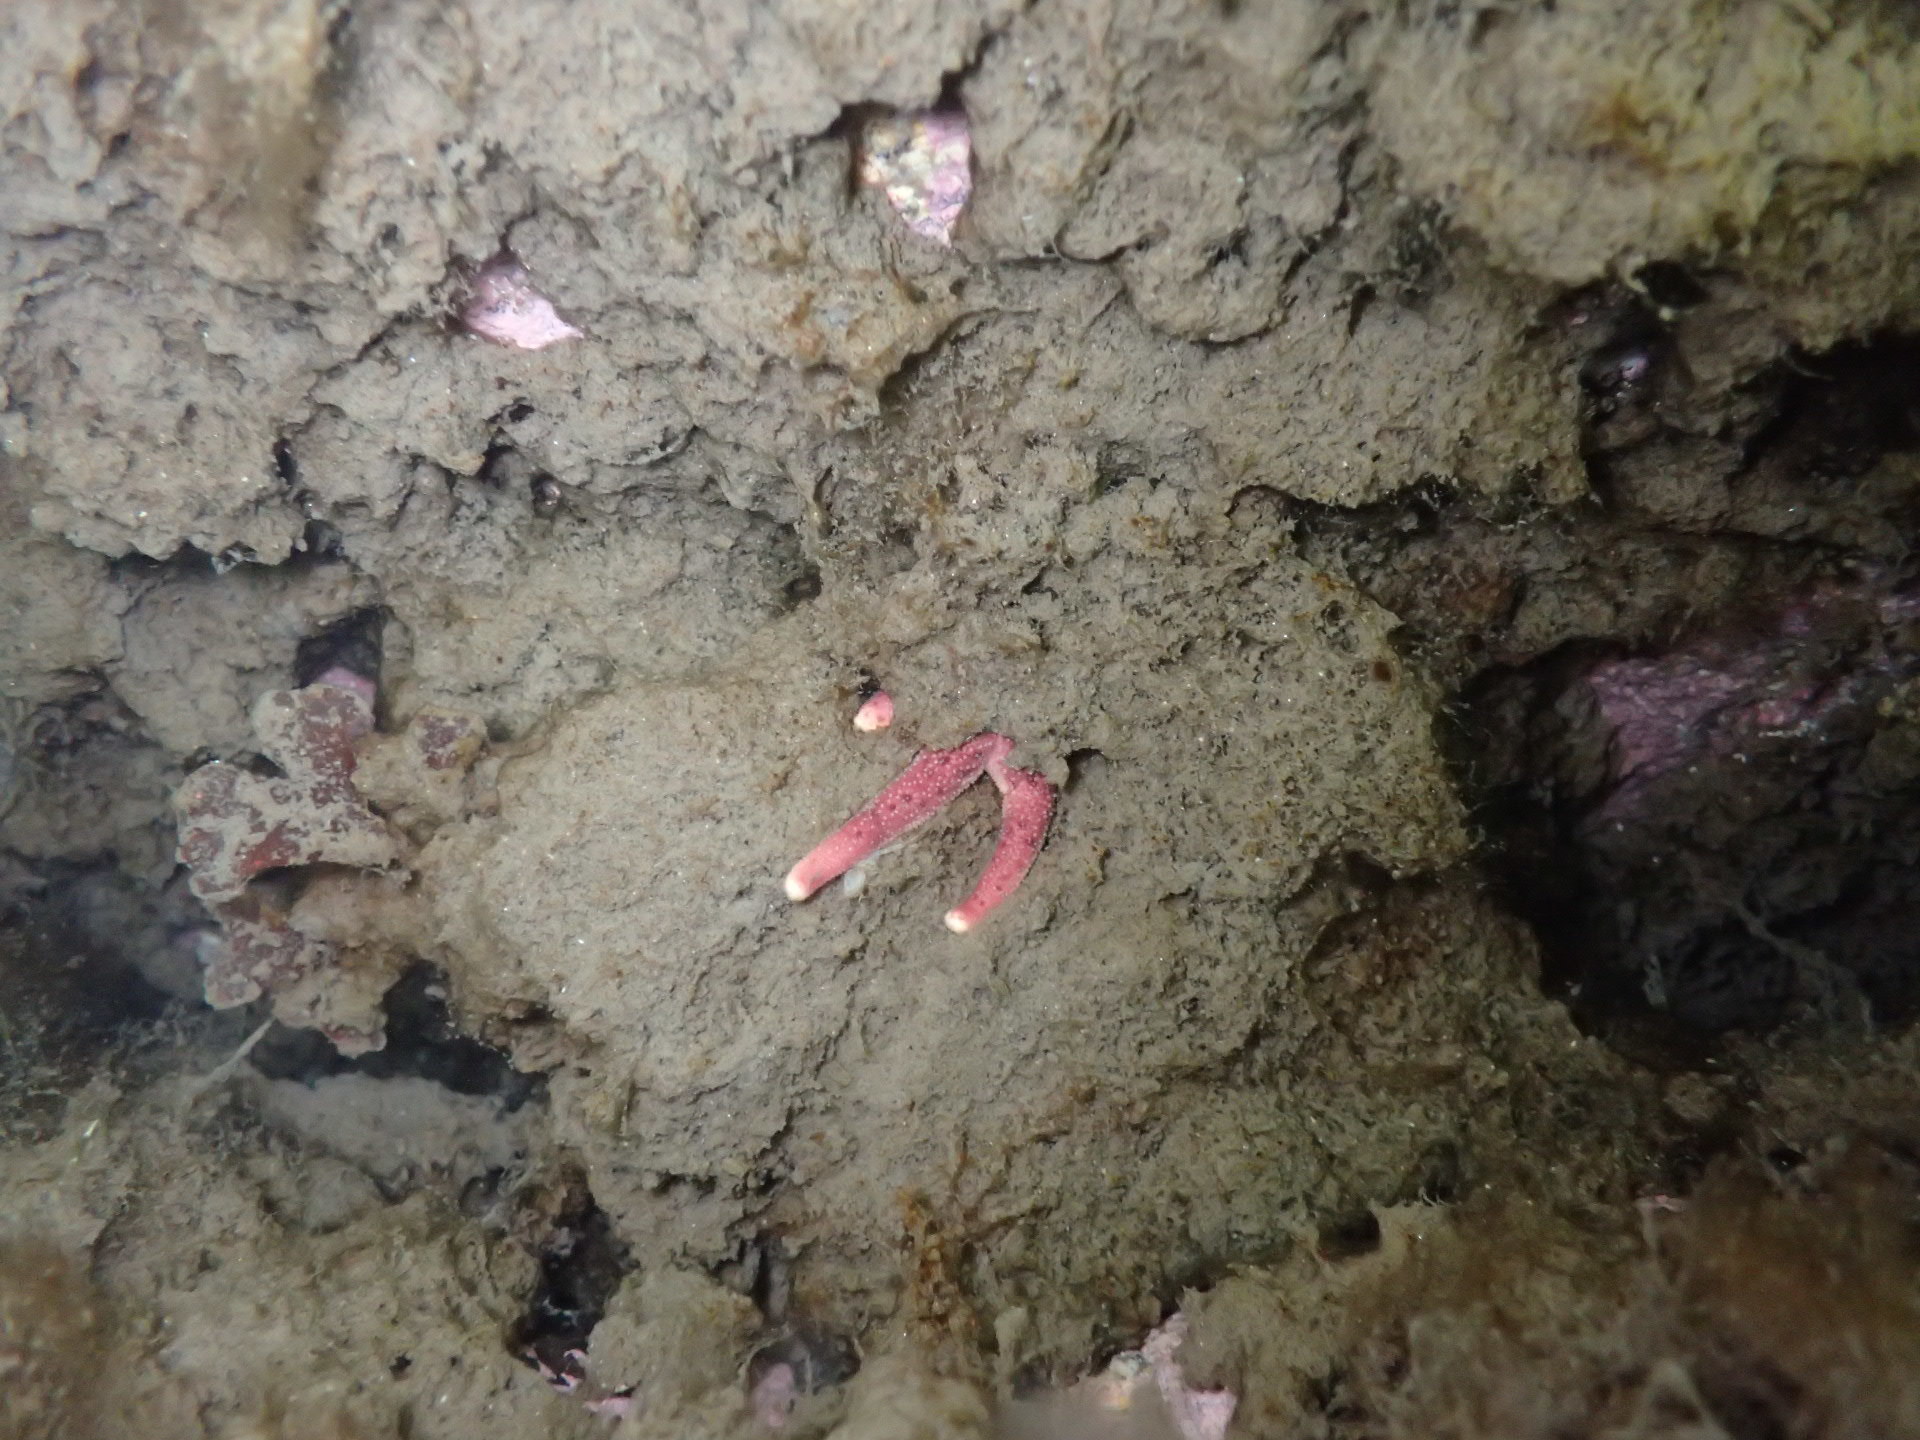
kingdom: Animalia
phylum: Echinodermata
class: Asteroidea
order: Spinulosida
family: Echinasteridae
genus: Henricia
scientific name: Henricia sanguinolenta
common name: Blood star
